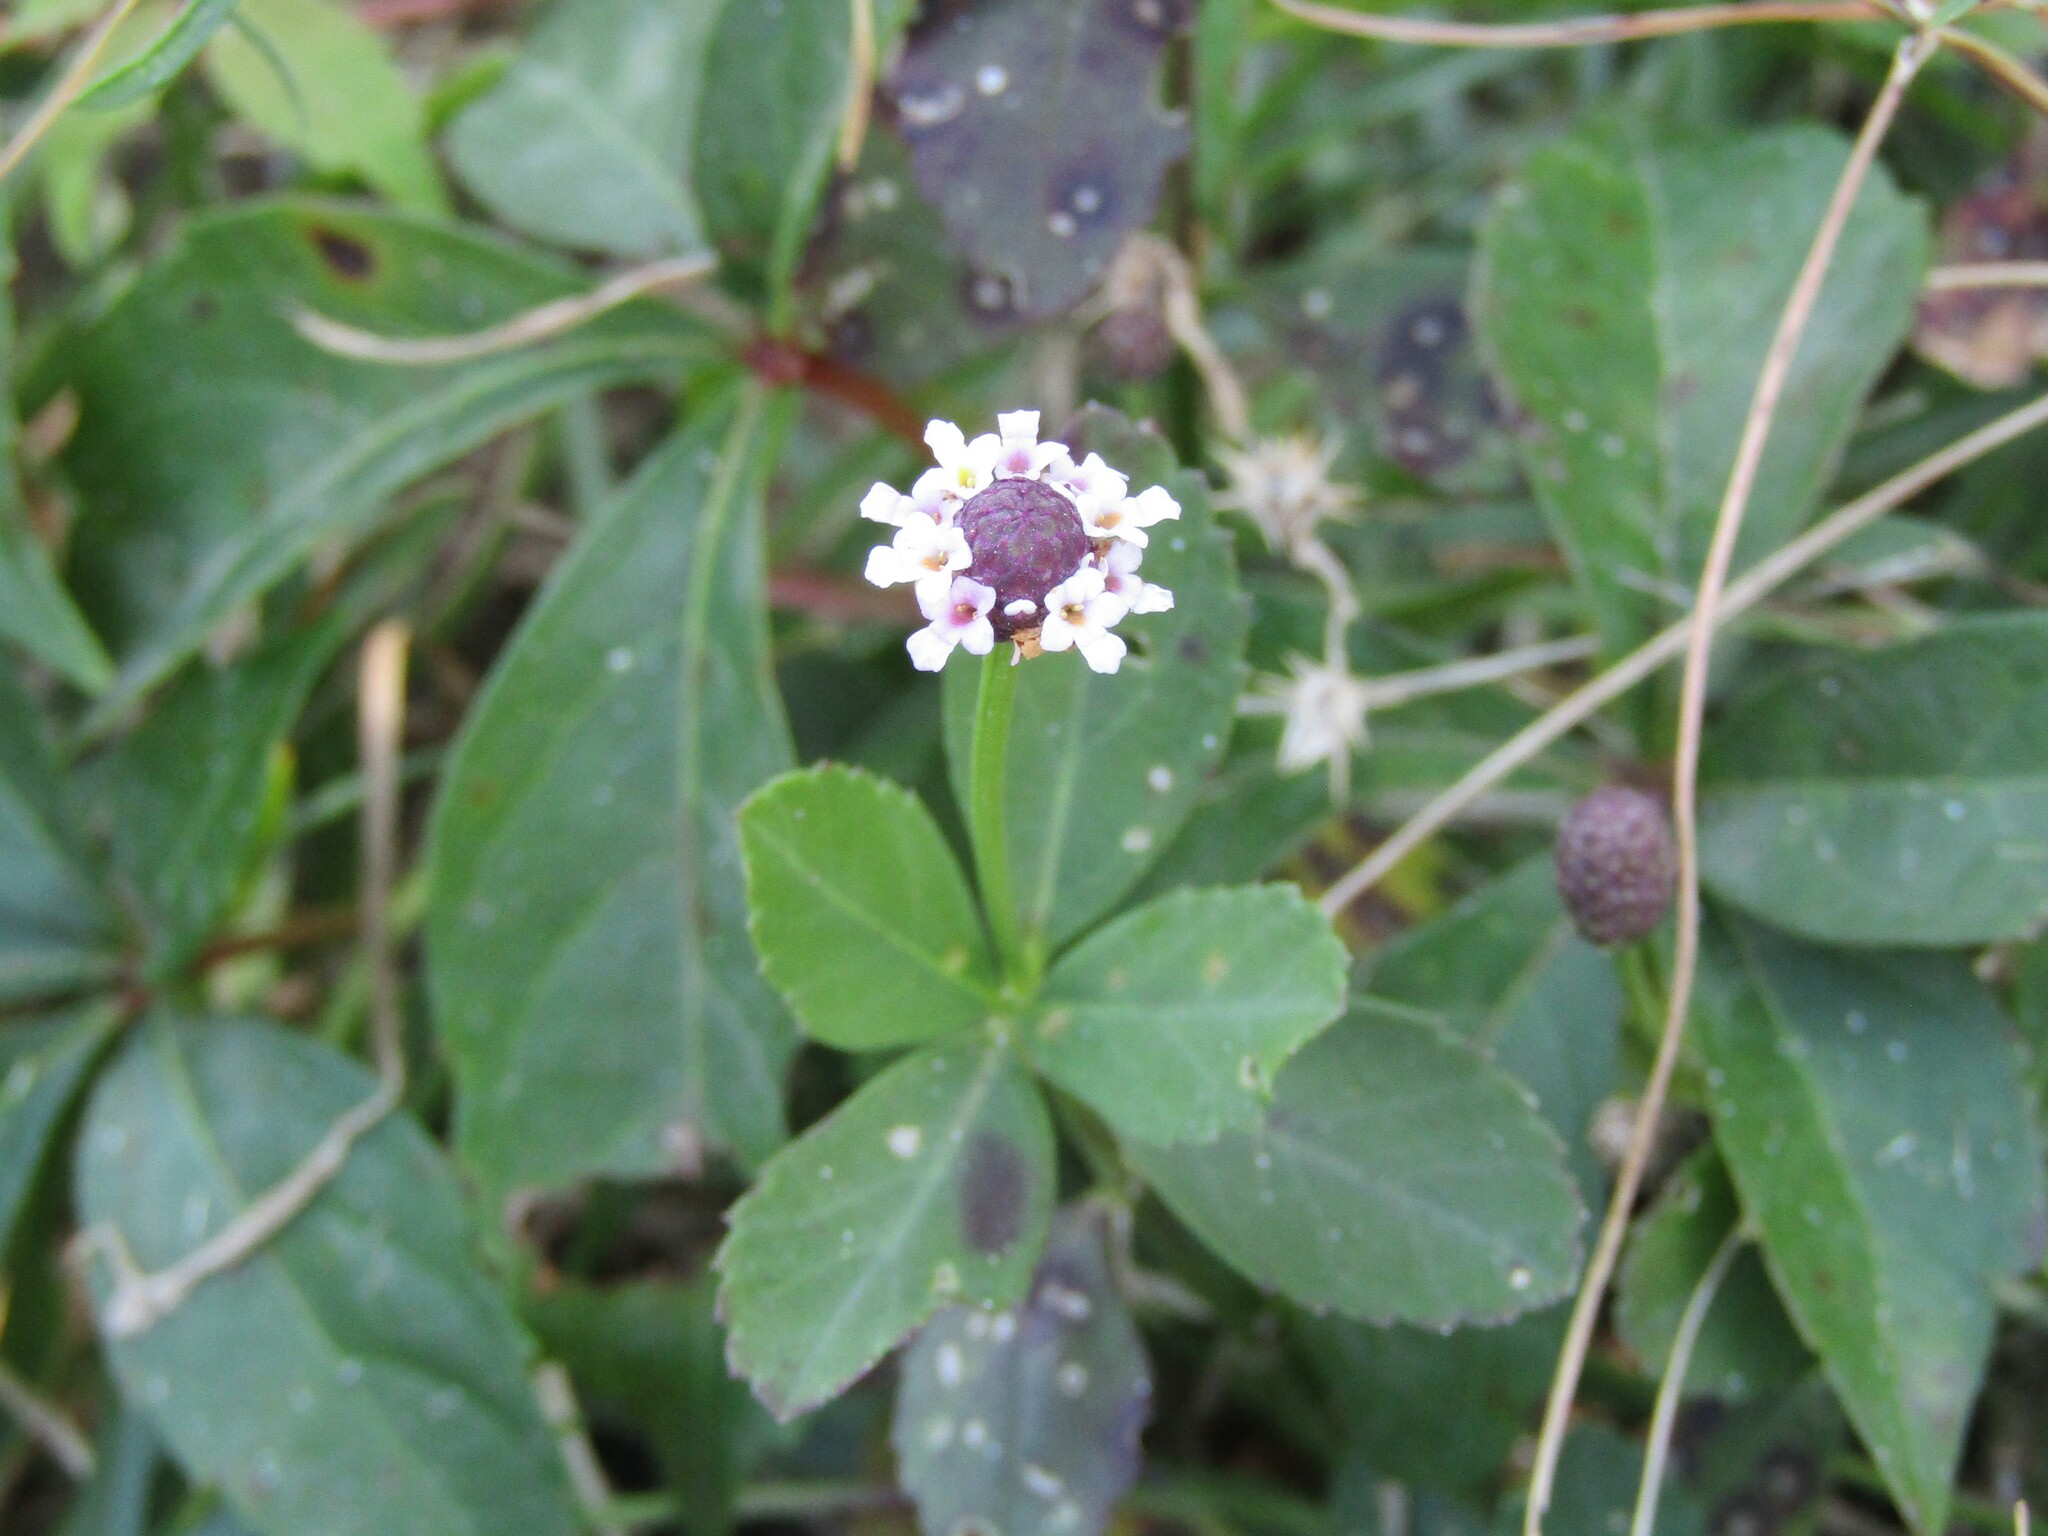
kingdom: Plantae
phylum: Tracheophyta
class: Magnoliopsida
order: Lamiales
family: Verbenaceae
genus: Phyla
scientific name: Phyla nodiflora
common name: Frogfruit
